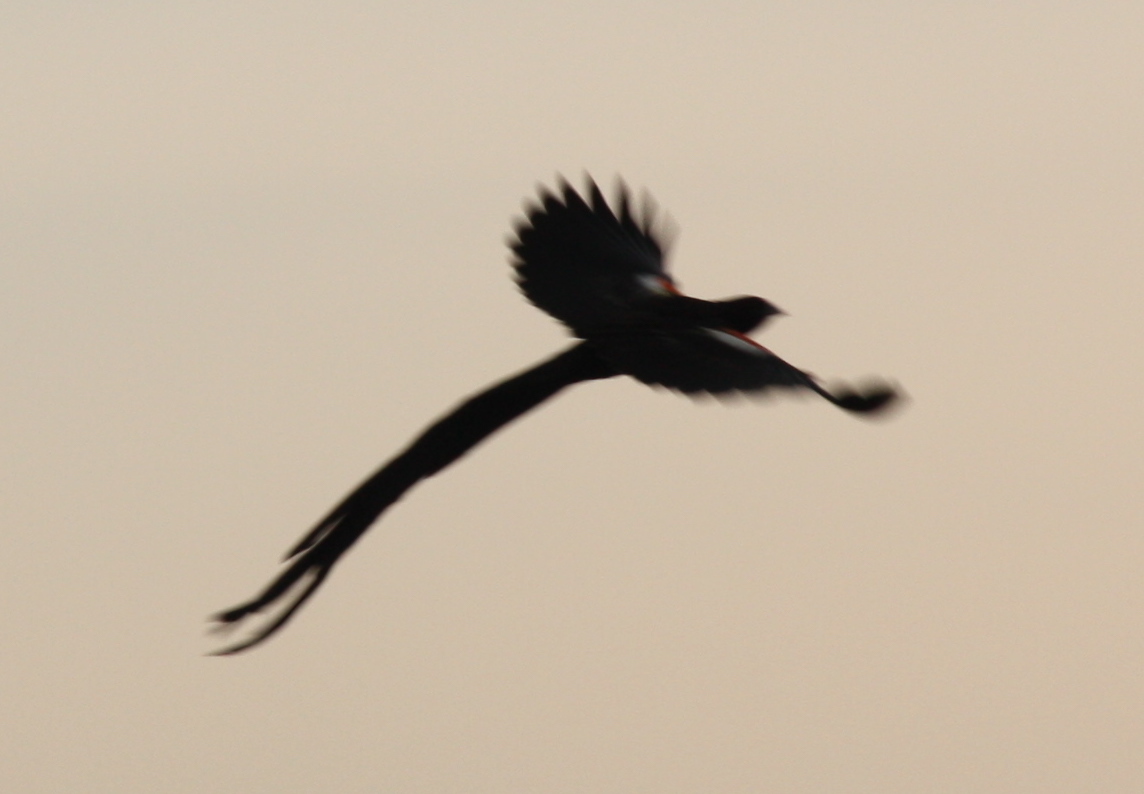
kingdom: Animalia
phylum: Chordata
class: Aves
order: Passeriformes
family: Ploceidae
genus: Euplectes
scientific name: Euplectes progne
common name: Long-tailed widowbird
